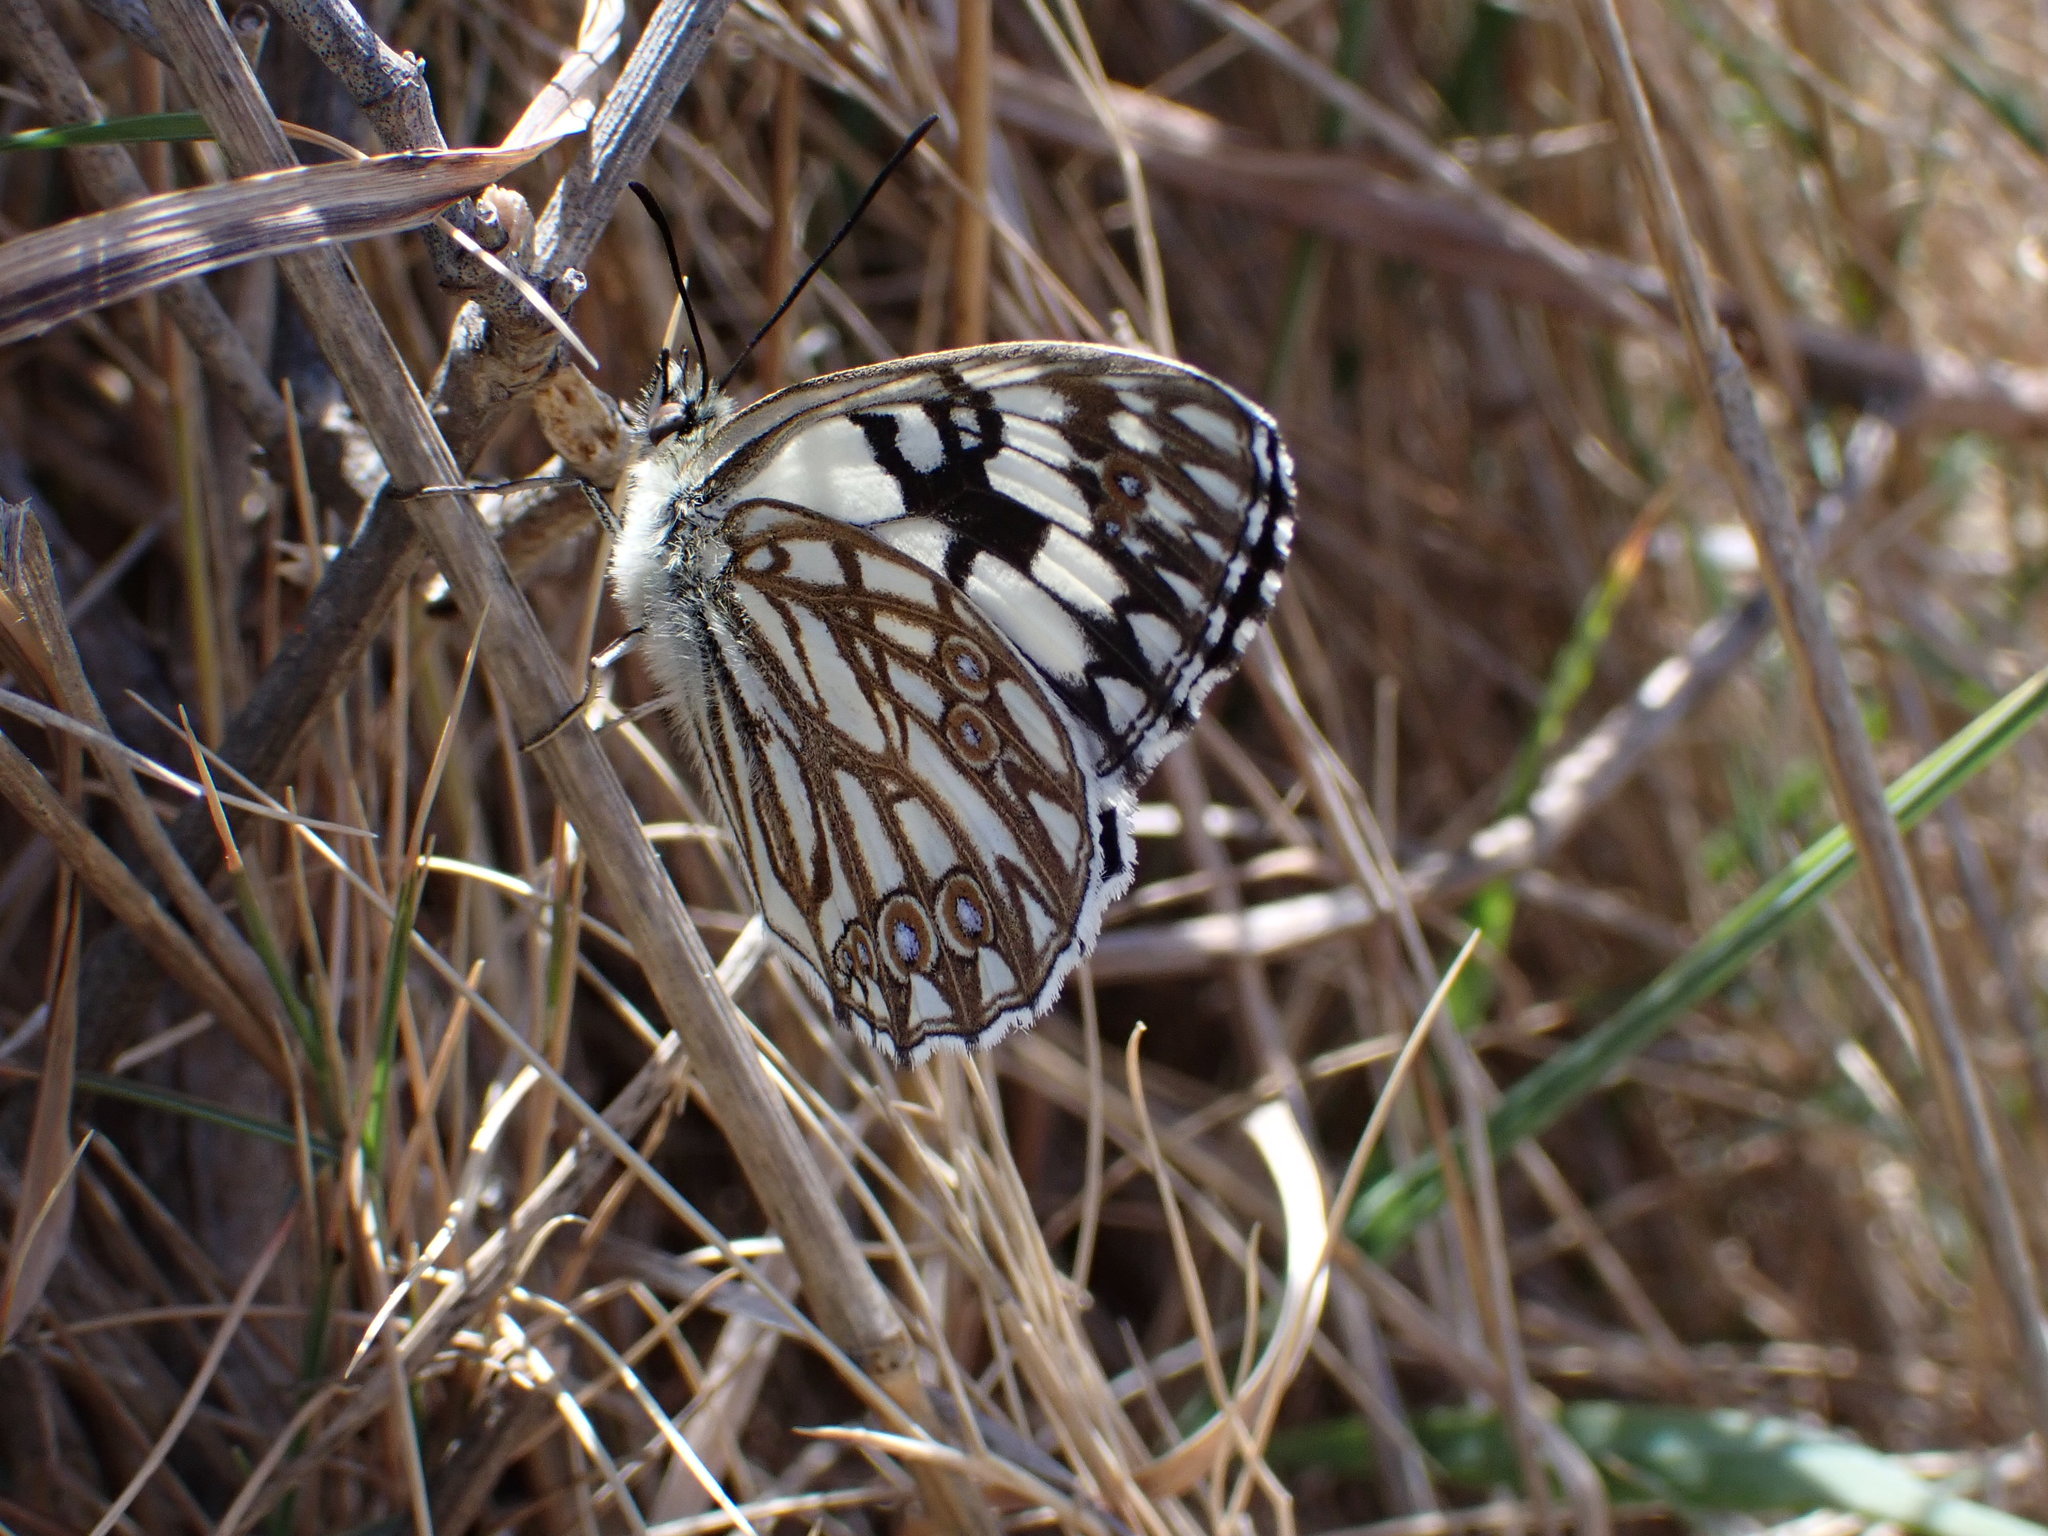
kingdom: Animalia
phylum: Arthropoda
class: Insecta
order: Lepidoptera
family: Nymphalidae
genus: Melanargia
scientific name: Melanargia occitanica
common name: Western marbled white
